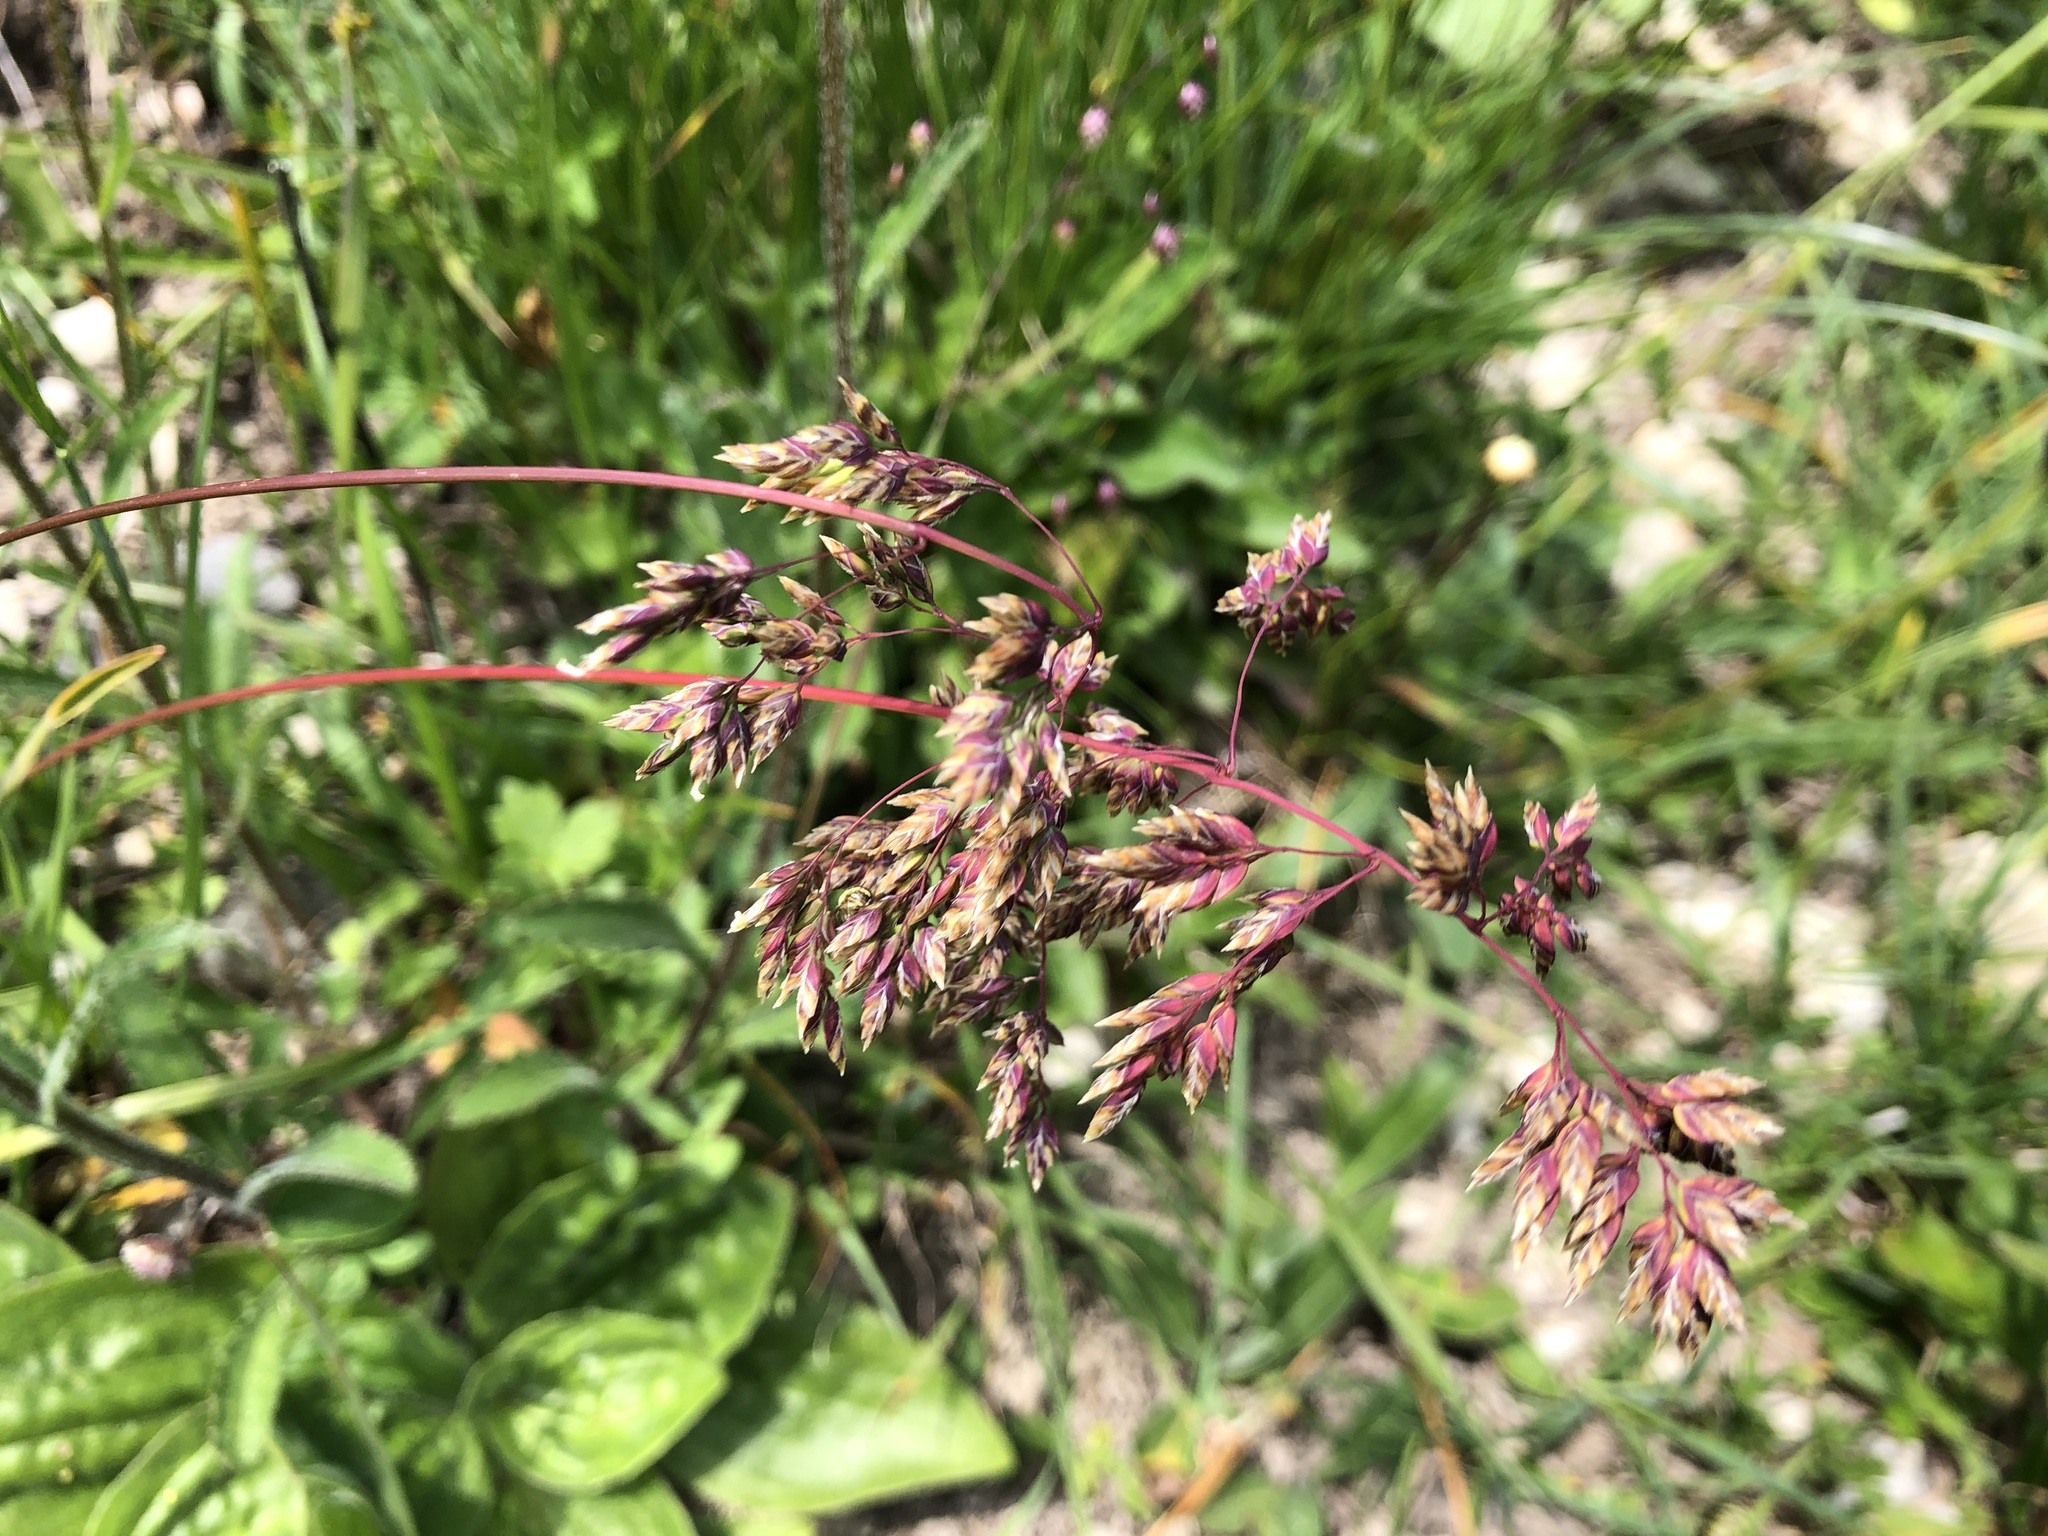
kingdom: Plantae
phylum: Tracheophyta
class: Liliopsida
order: Poales
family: Poaceae
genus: Poa
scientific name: Poa alpina
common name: Alpine bluegrass
